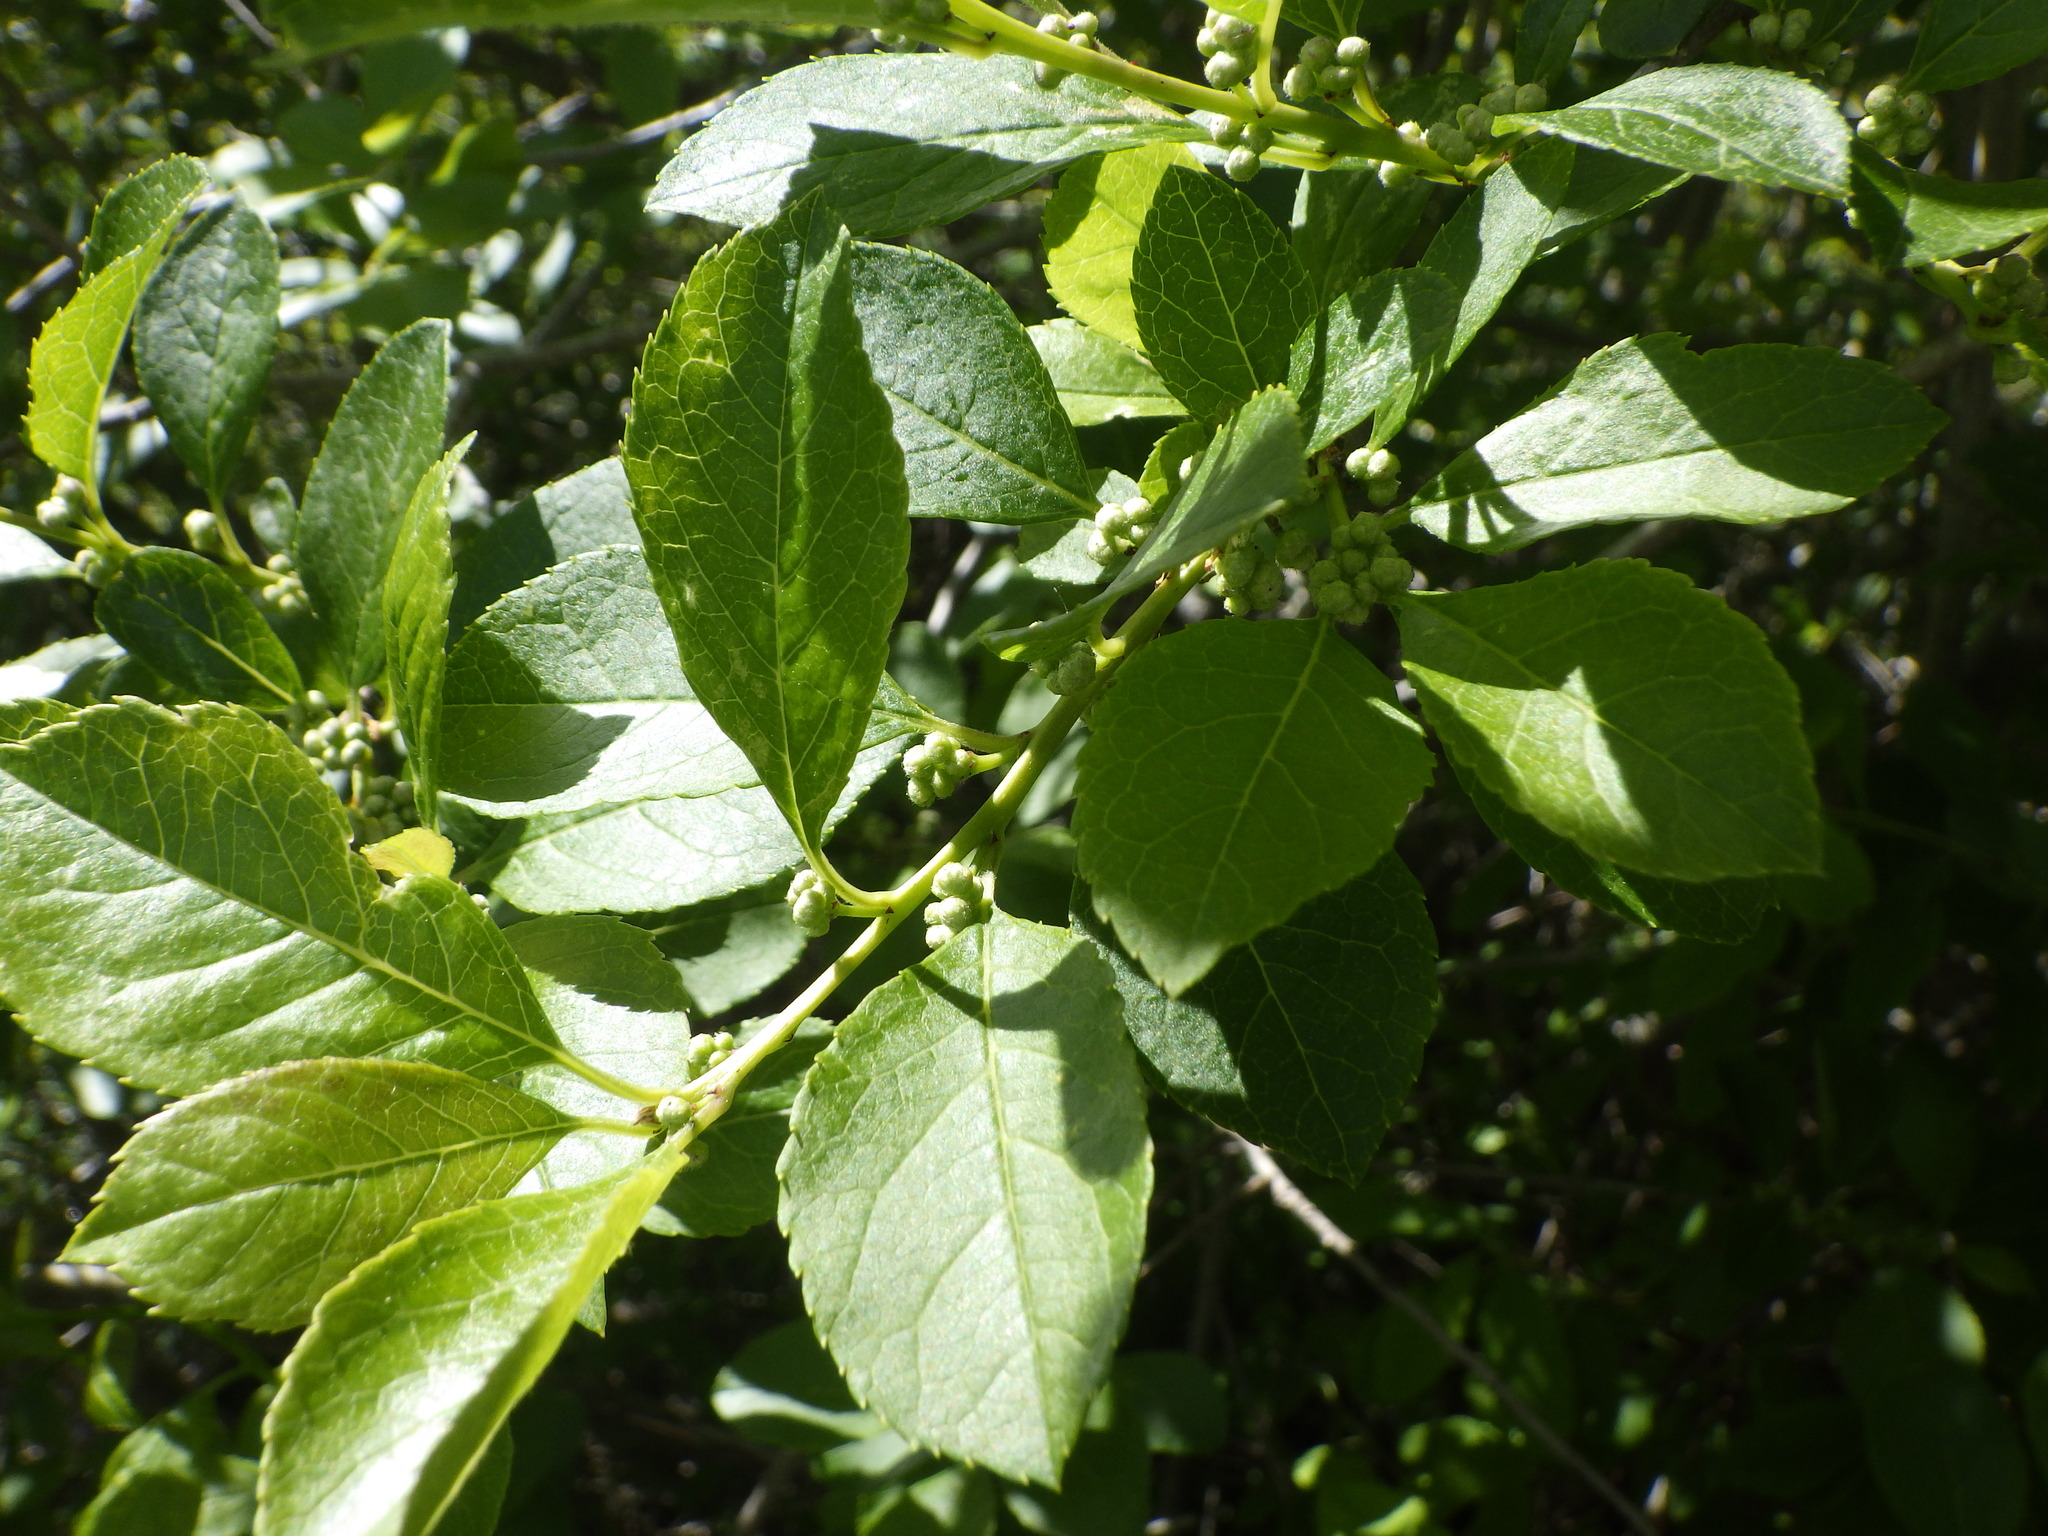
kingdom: Plantae
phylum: Tracheophyta
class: Magnoliopsida
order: Aquifoliales
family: Aquifoliaceae
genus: Ilex
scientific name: Ilex verticillata
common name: Virginia winterberry
